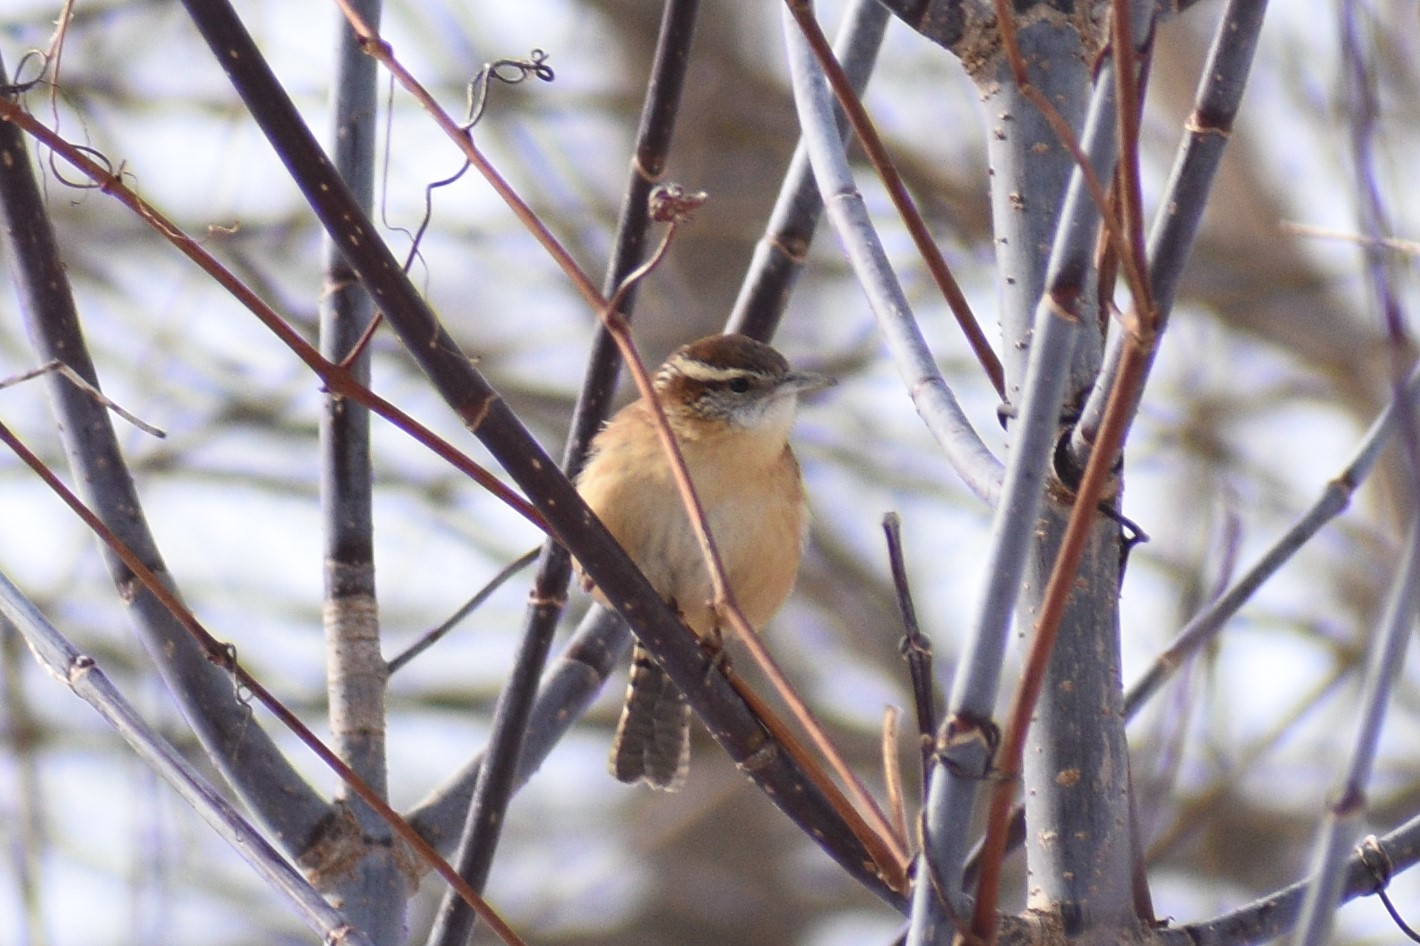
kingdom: Animalia
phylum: Chordata
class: Aves
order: Passeriformes
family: Troglodytidae
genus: Thryothorus
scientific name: Thryothorus ludovicianus
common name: Carolina wren
